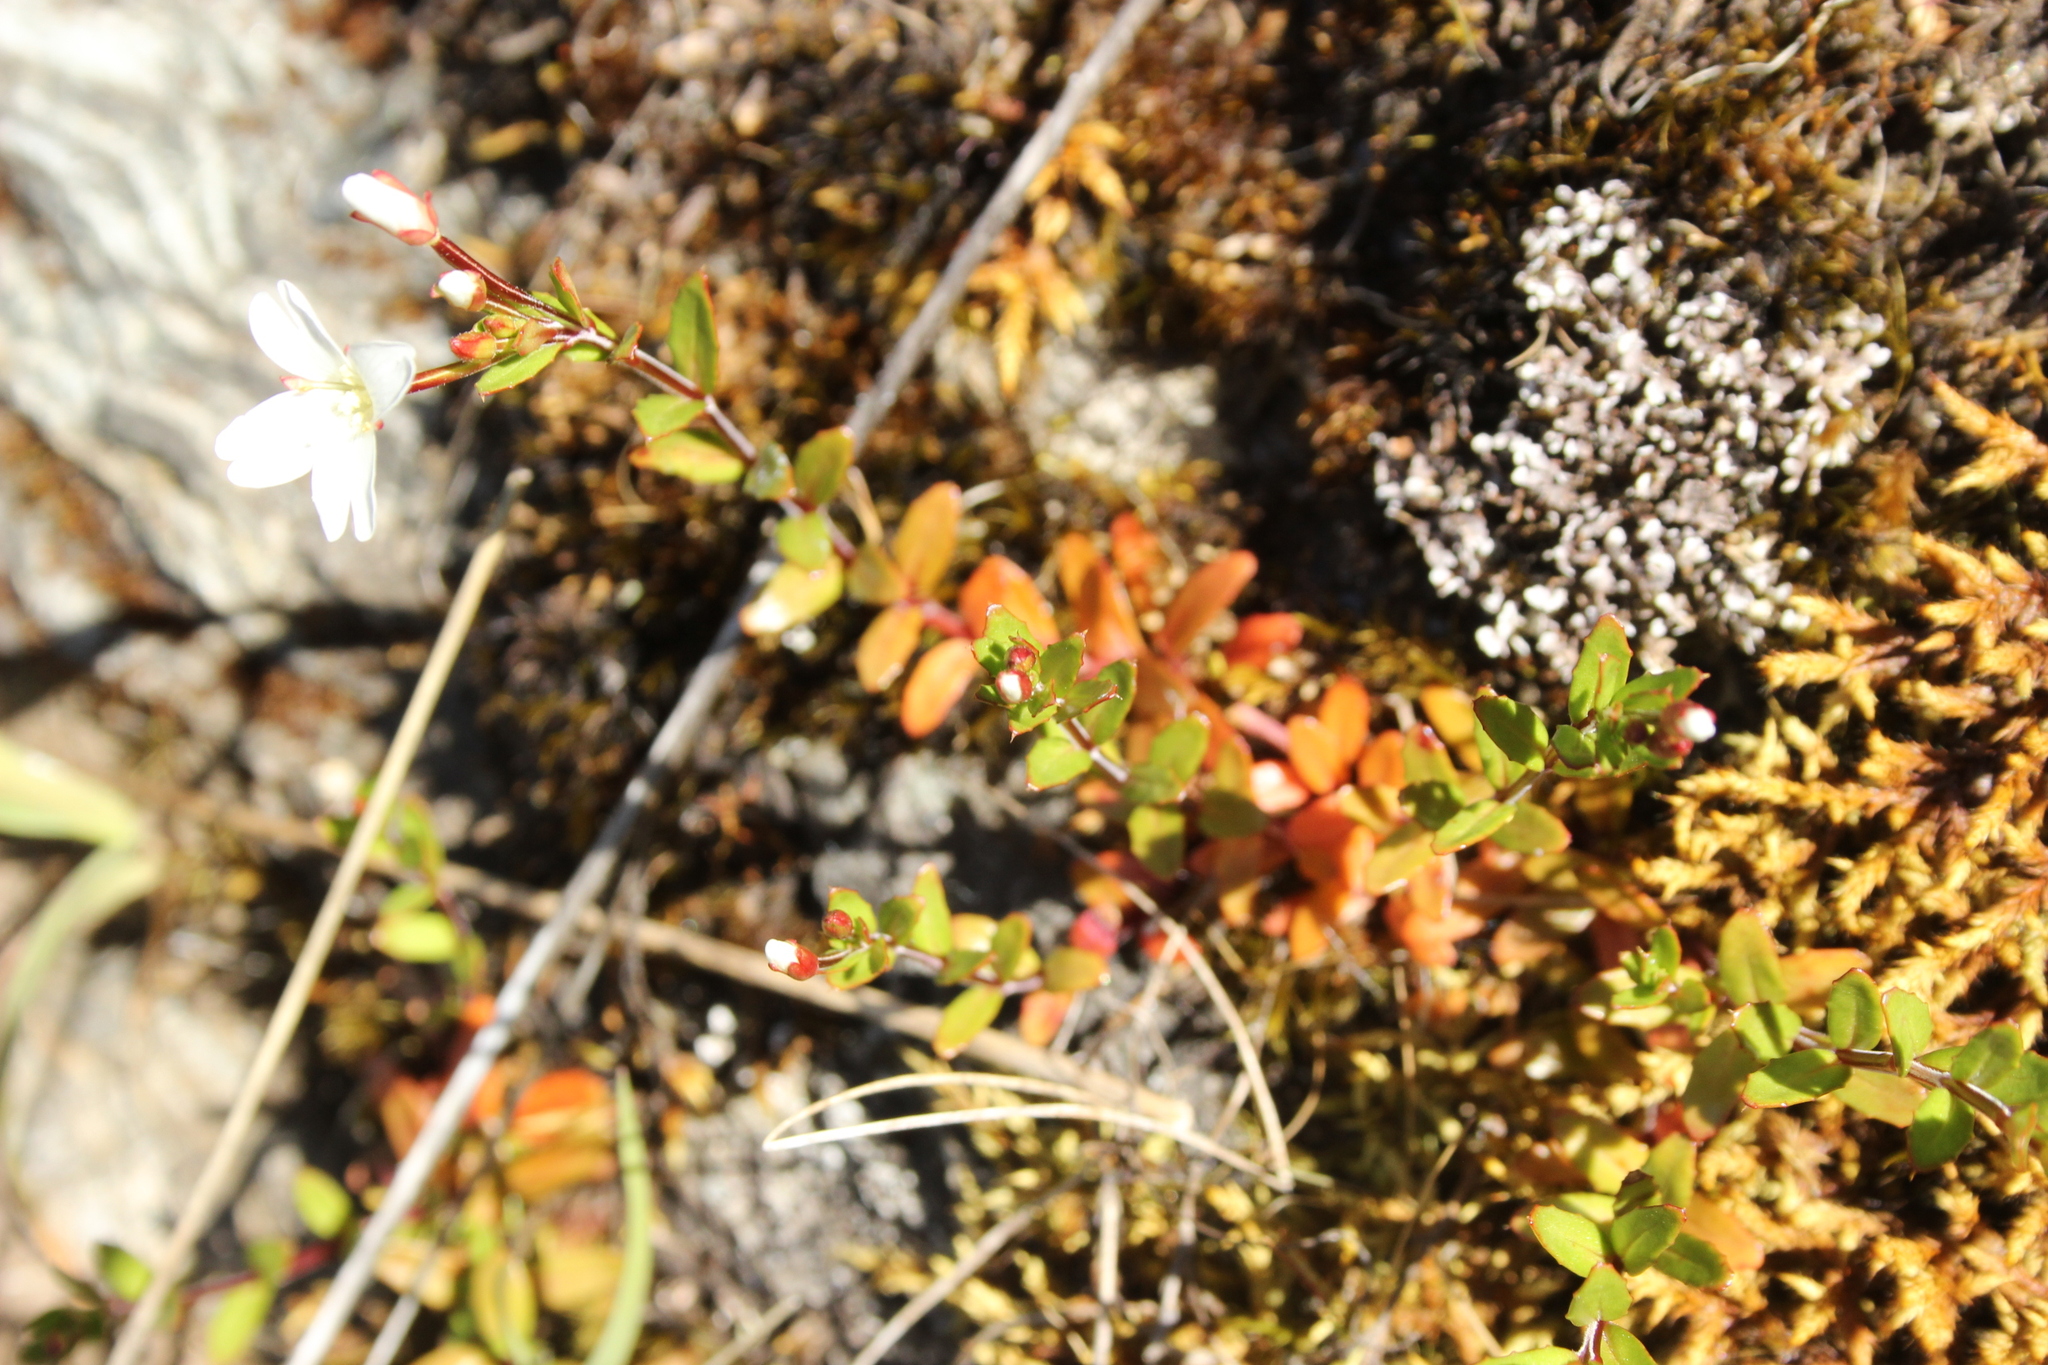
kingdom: Plantae
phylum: Tracheophyta
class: Magnoliopsida
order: Myrtales
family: Onagraceae
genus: Epilobium
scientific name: Epilobium hectorii
